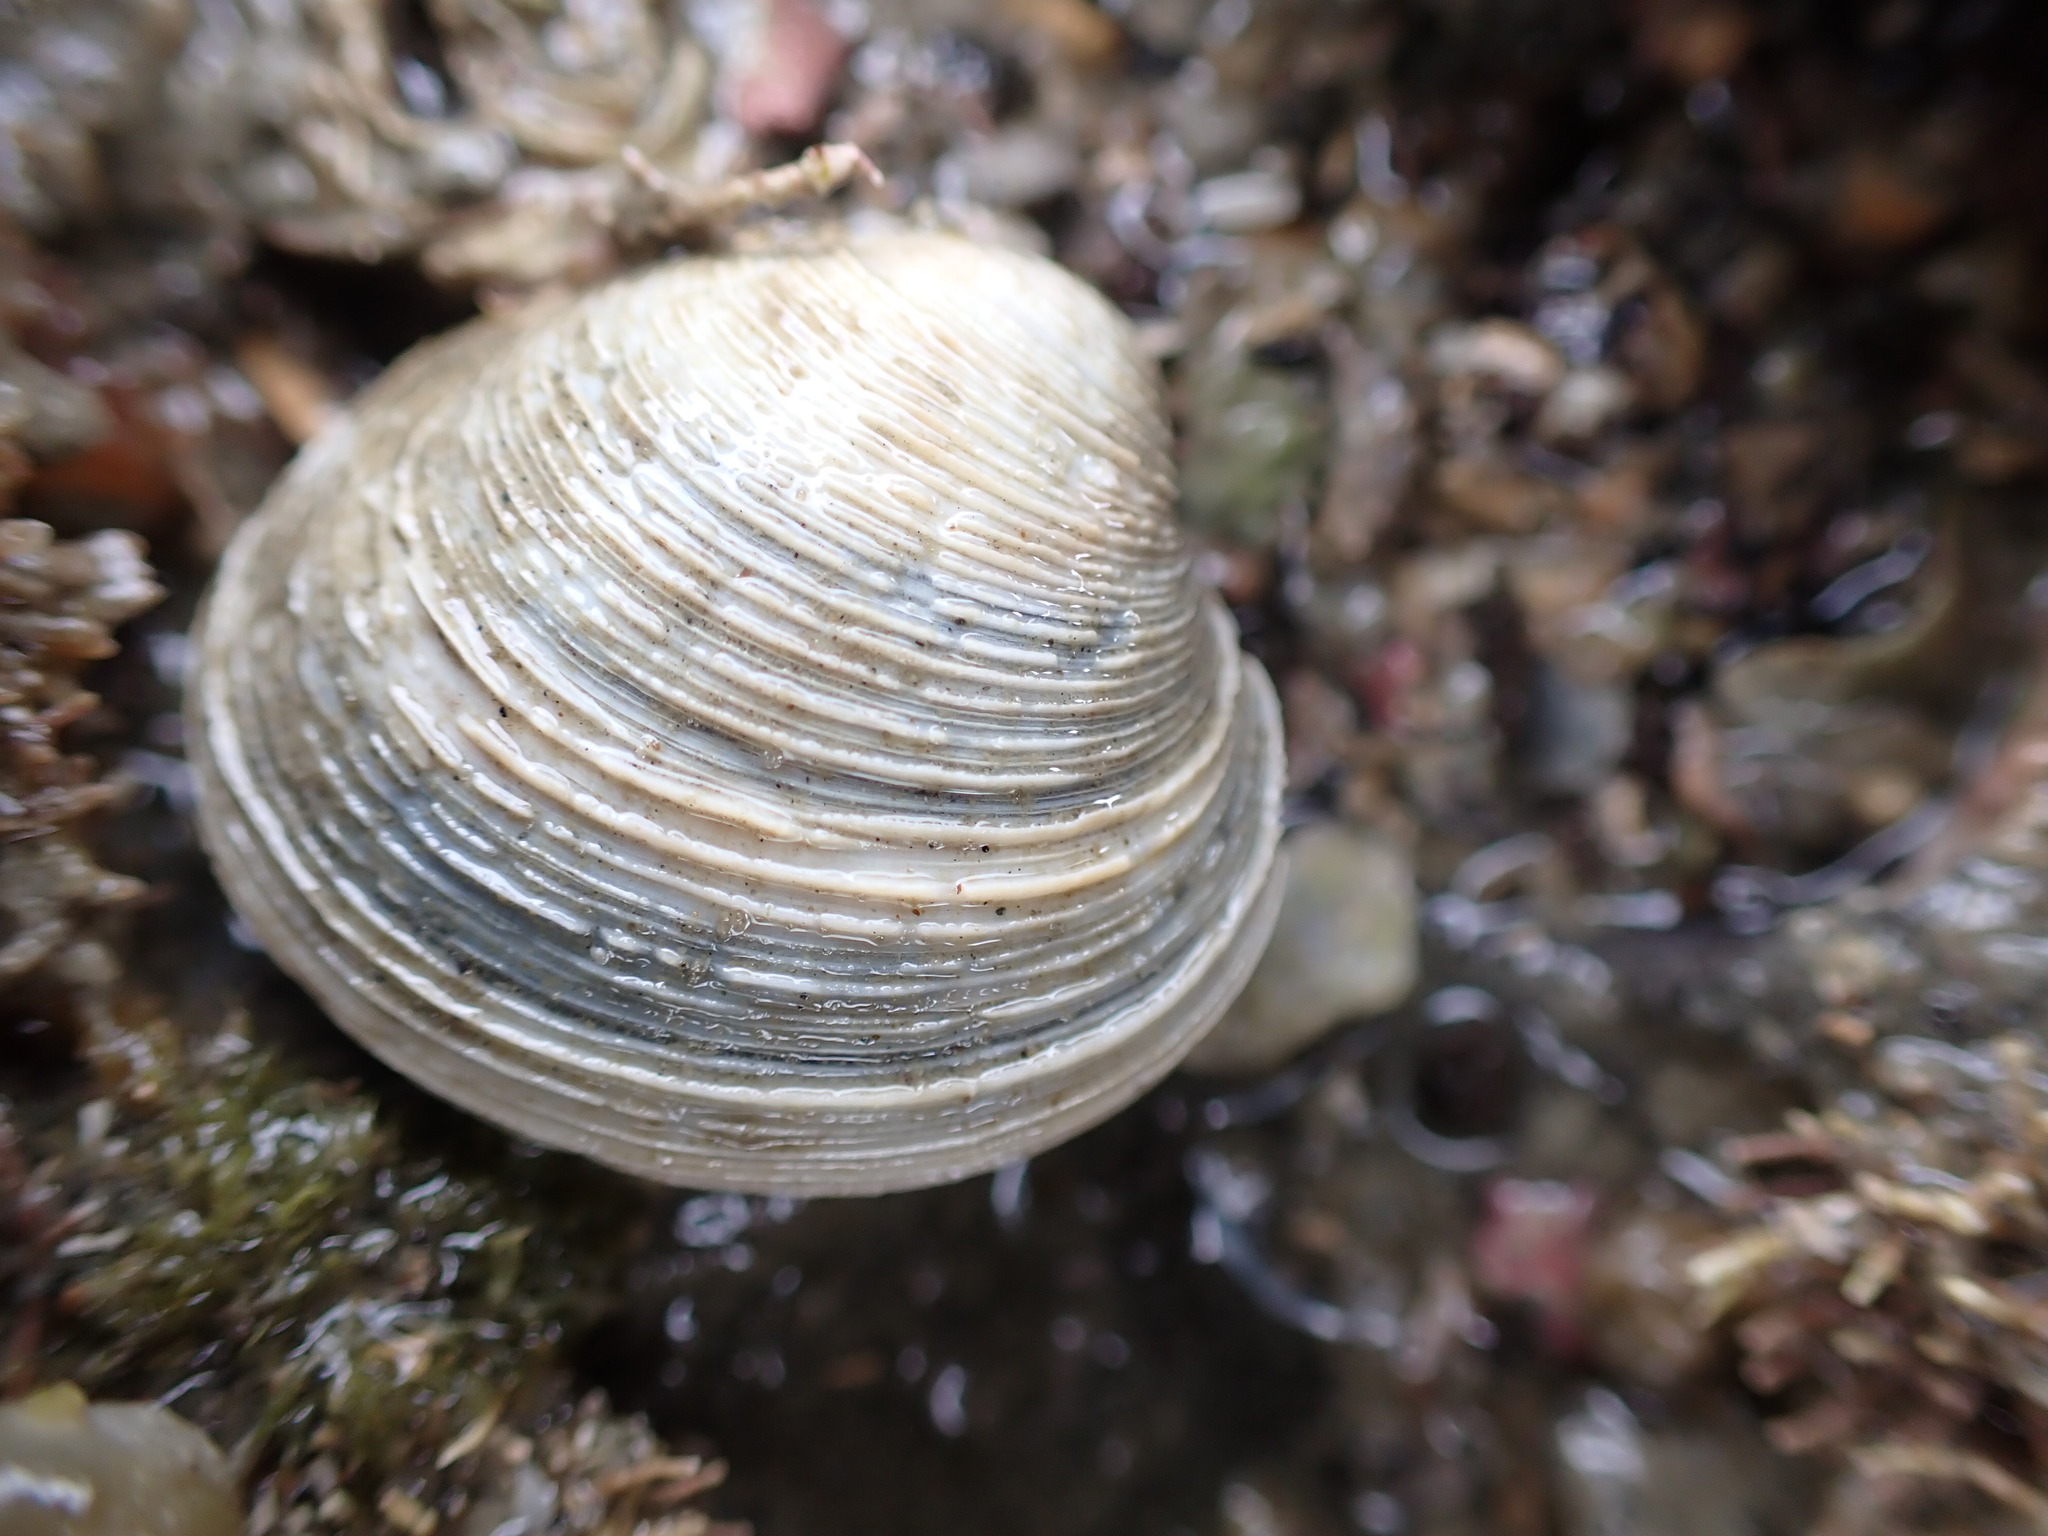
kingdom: Animalia
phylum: Mollusca
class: Bivalvia
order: Venerida
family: Veneridae
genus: Dosina
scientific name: Dosina mactracea
